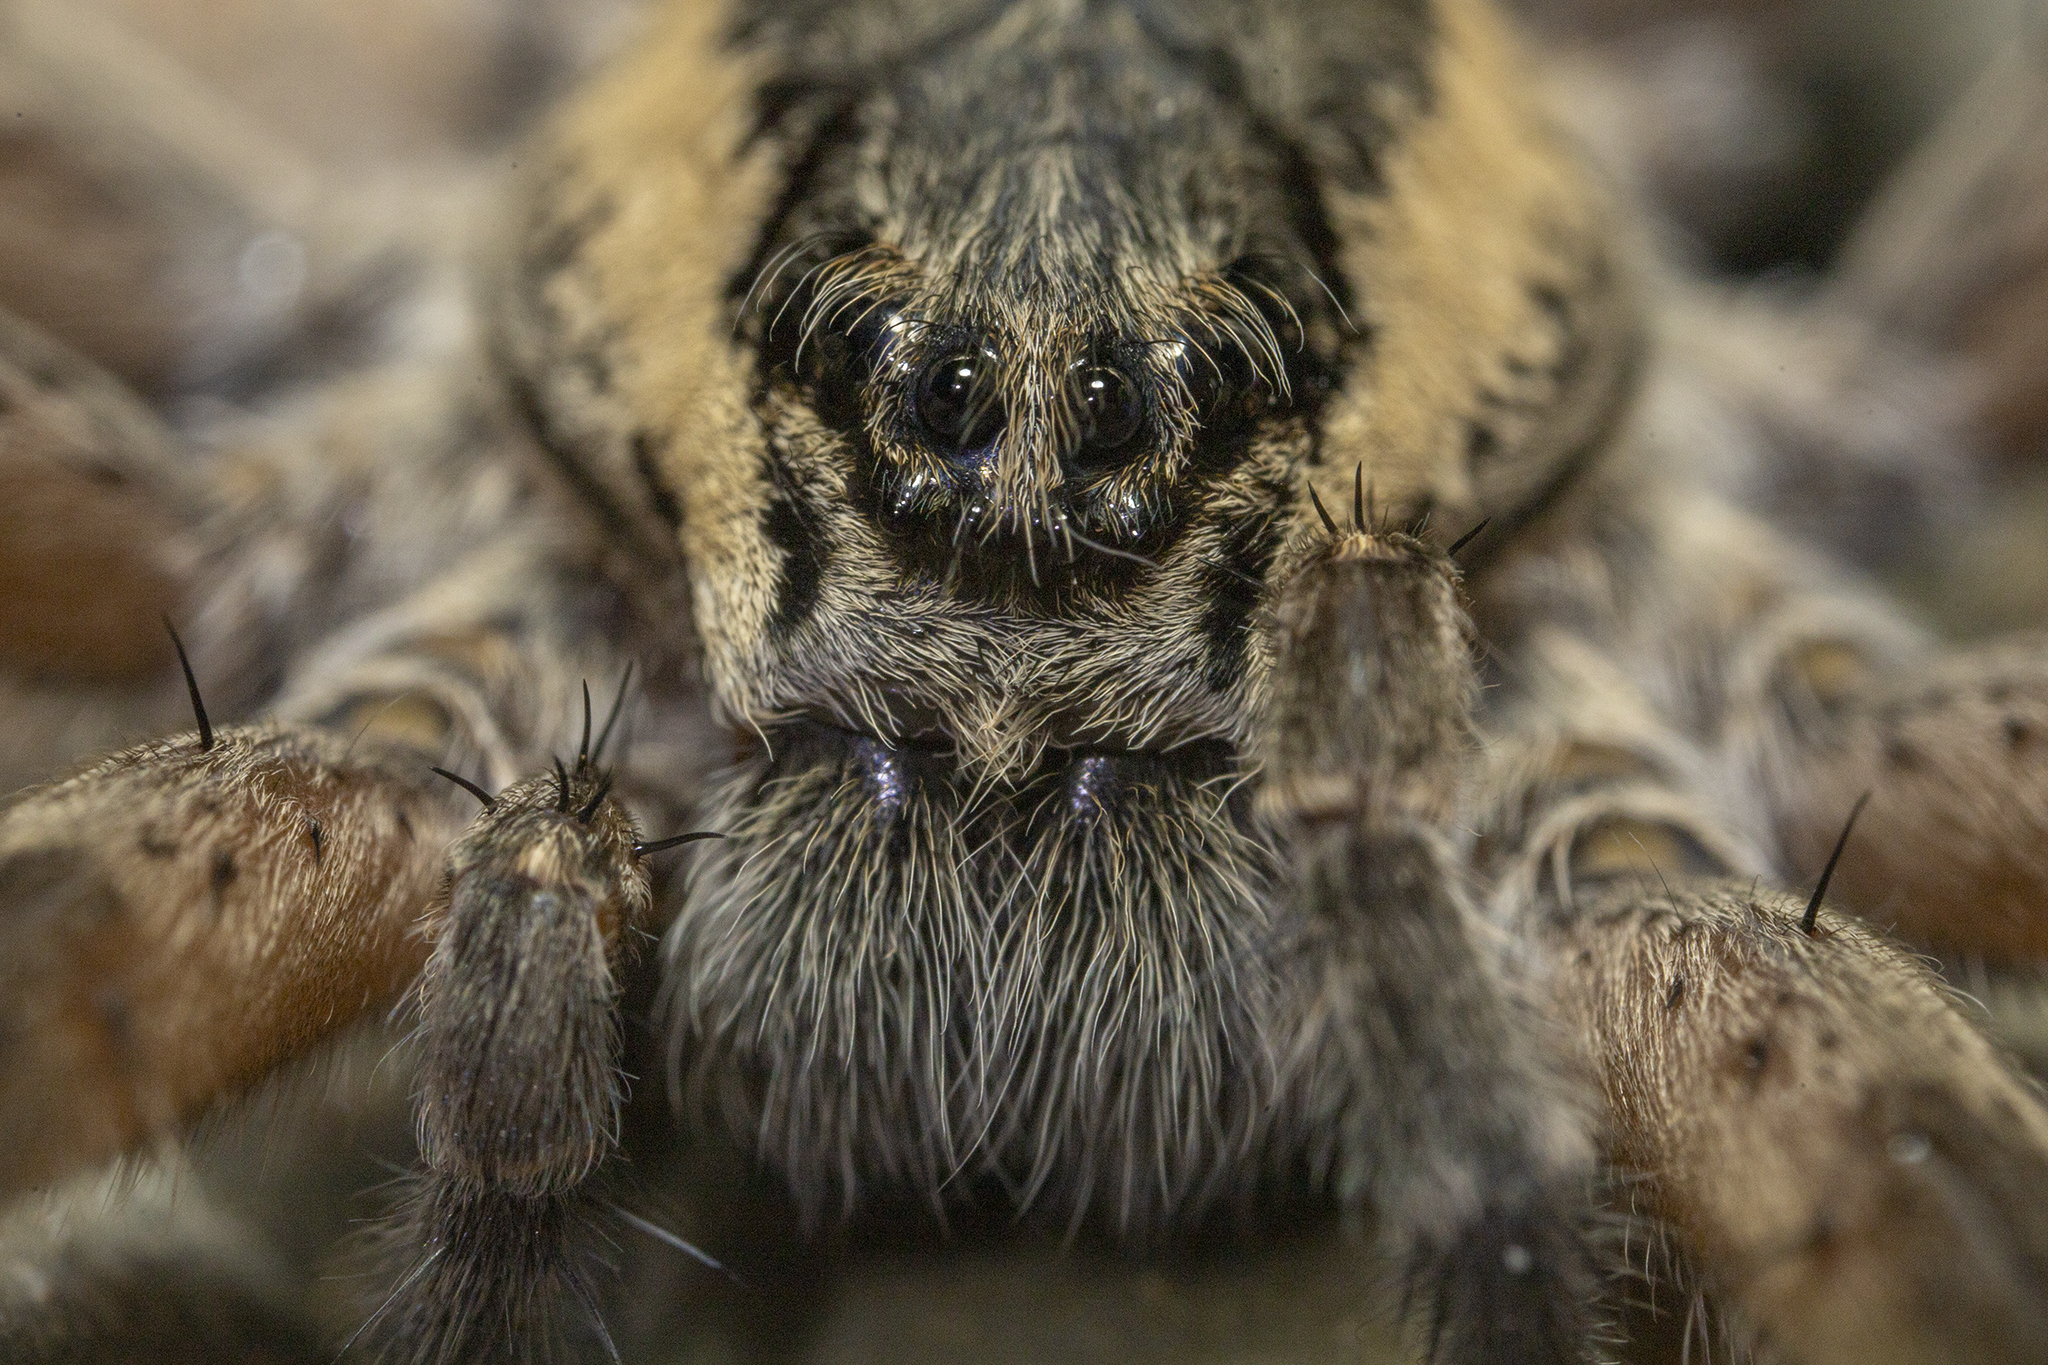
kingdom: Animalia
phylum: Arthropoda
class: Arachnida
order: Araneae
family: Pisauridae
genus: Dolomedes
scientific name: Dolomedes aquaticus
